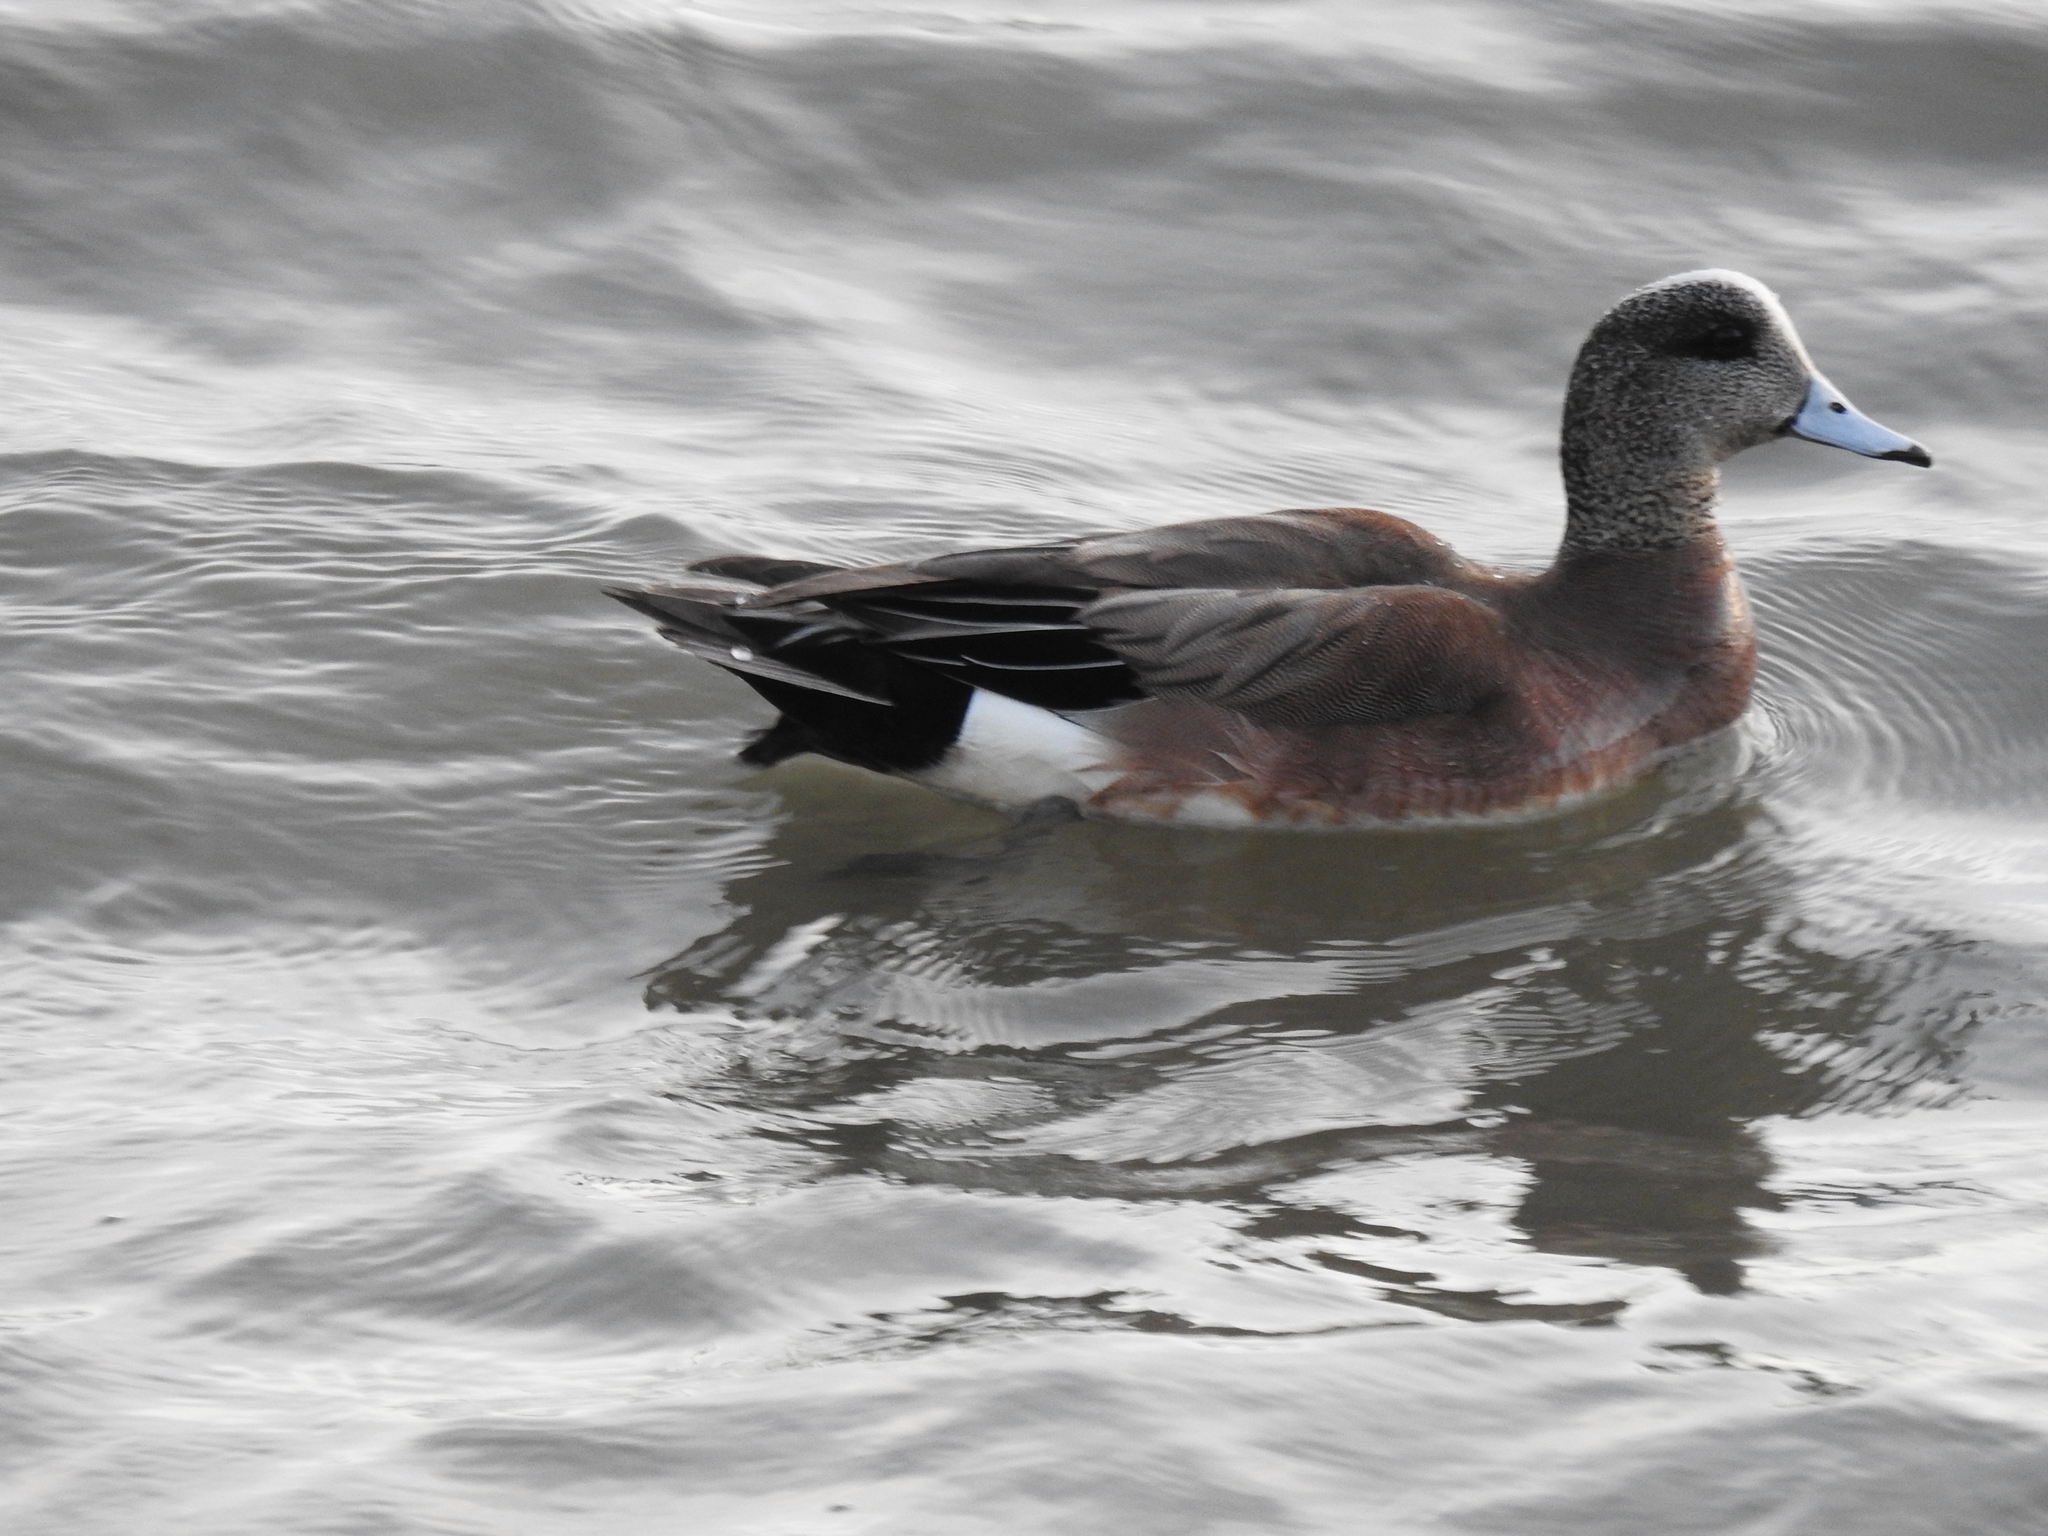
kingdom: Animalia
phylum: Chordata
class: Aves
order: Anseriformes
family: Anatidae
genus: Mareca
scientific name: Mareca americana
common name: American wigeon
